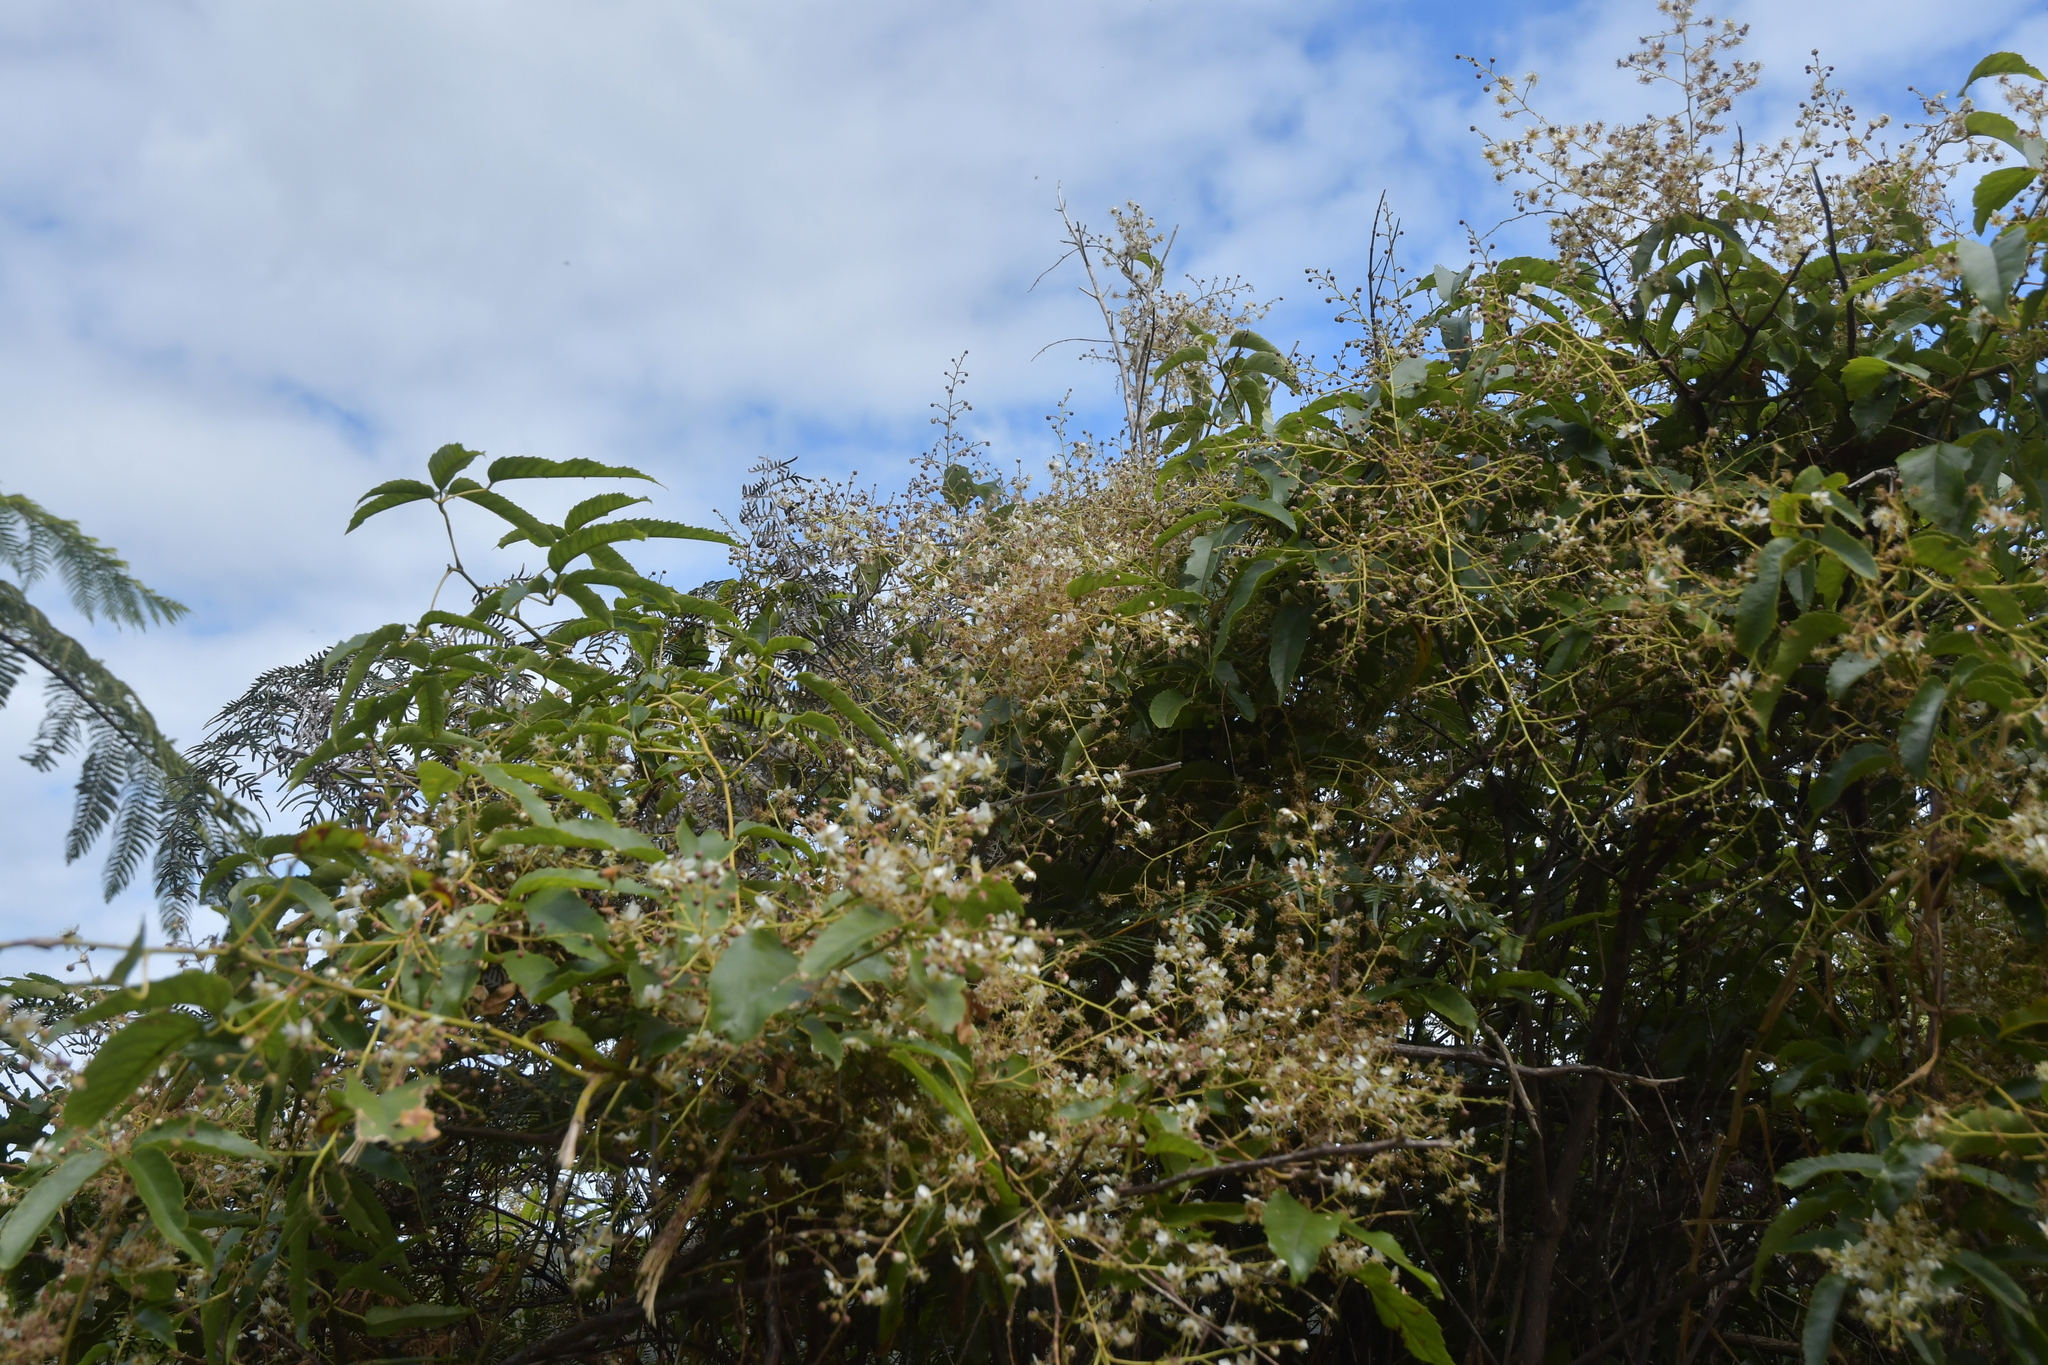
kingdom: Plantae
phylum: Tracheophyta
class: Magnoliopsida
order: Rosales
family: Rosaceae
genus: Rubus
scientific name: Rubus cissoides
